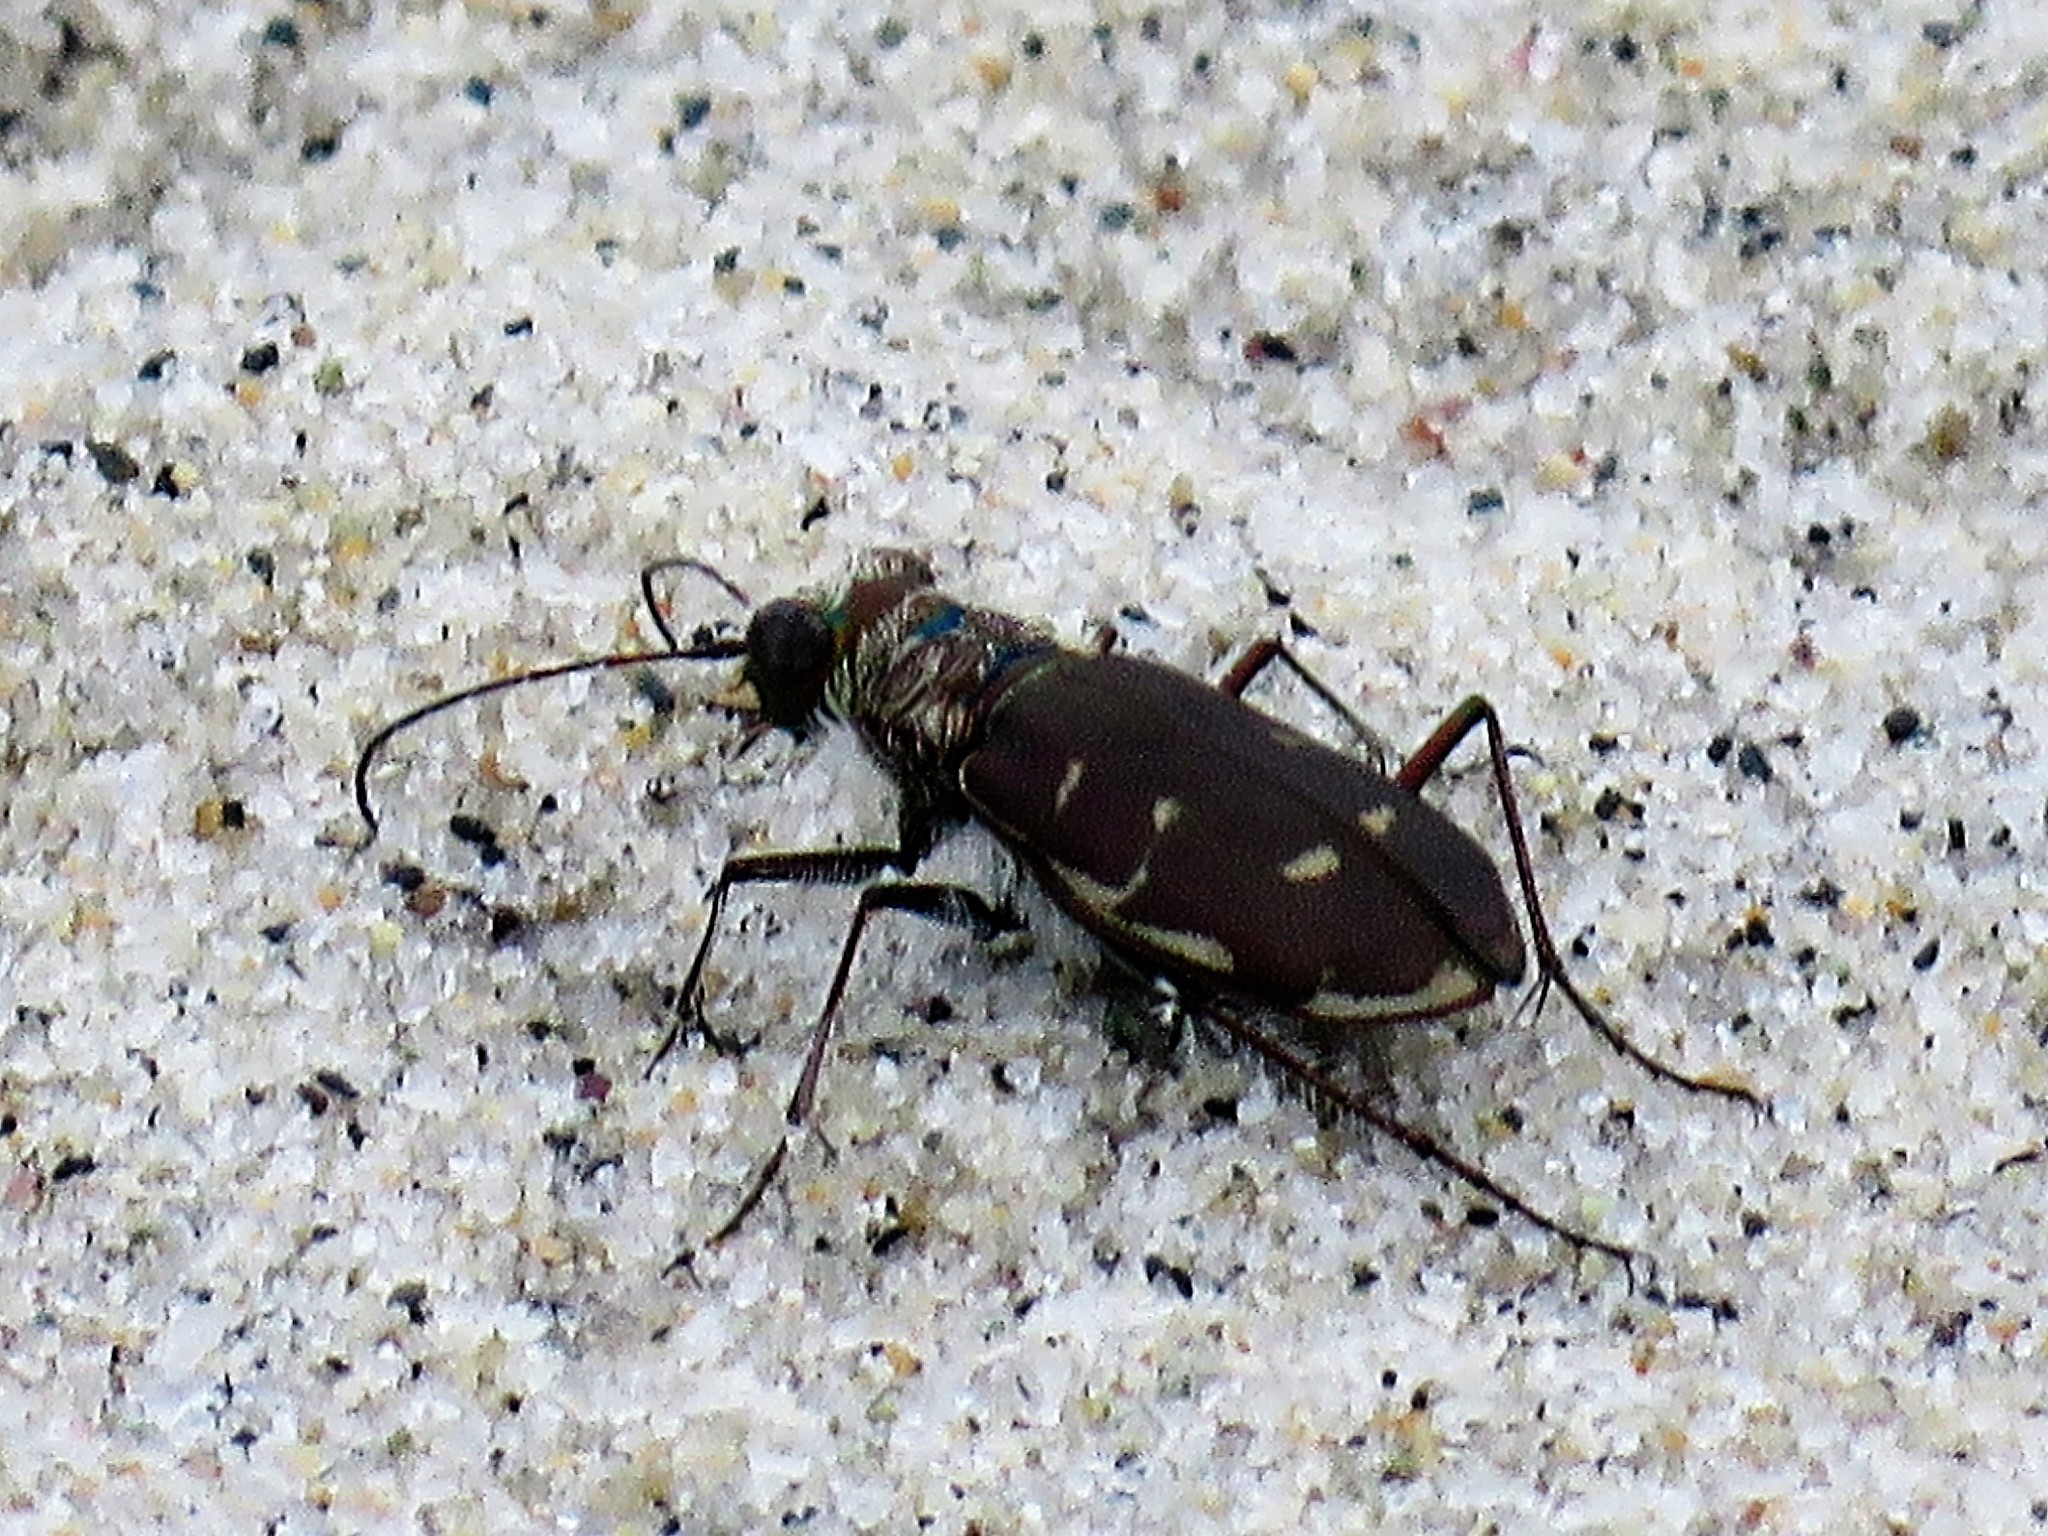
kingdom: Animalia
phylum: Arthropoda
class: Insecta
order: Coleoptera
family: Carabidae
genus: Cicindela
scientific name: Cicindela hirticollis
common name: Hairy-necked tiger beetle
